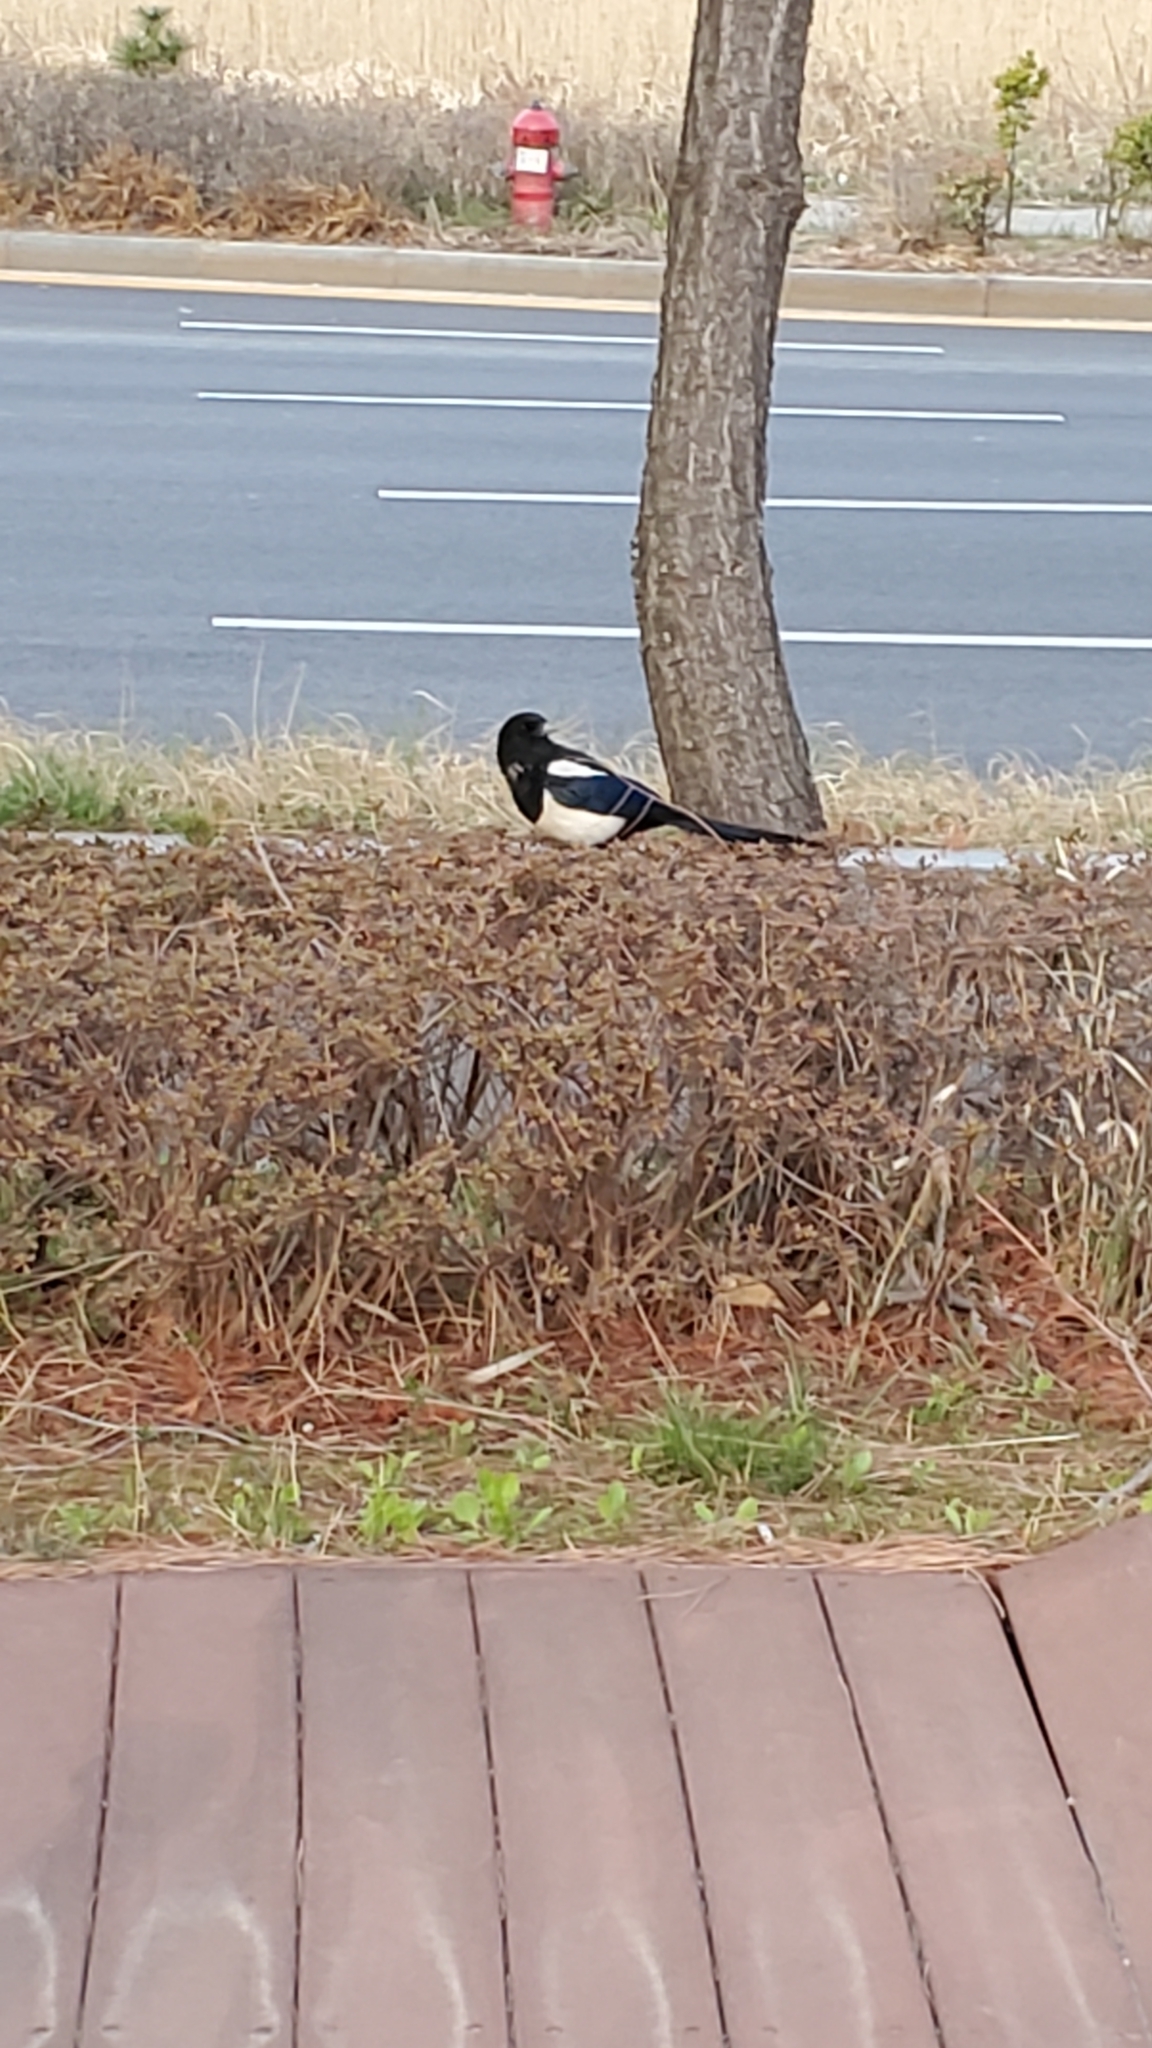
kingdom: Animalia
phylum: Chordata
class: Aves
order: Passeriformes
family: Corvidae
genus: Pica
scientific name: Pica serica
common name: Oriental magpie
